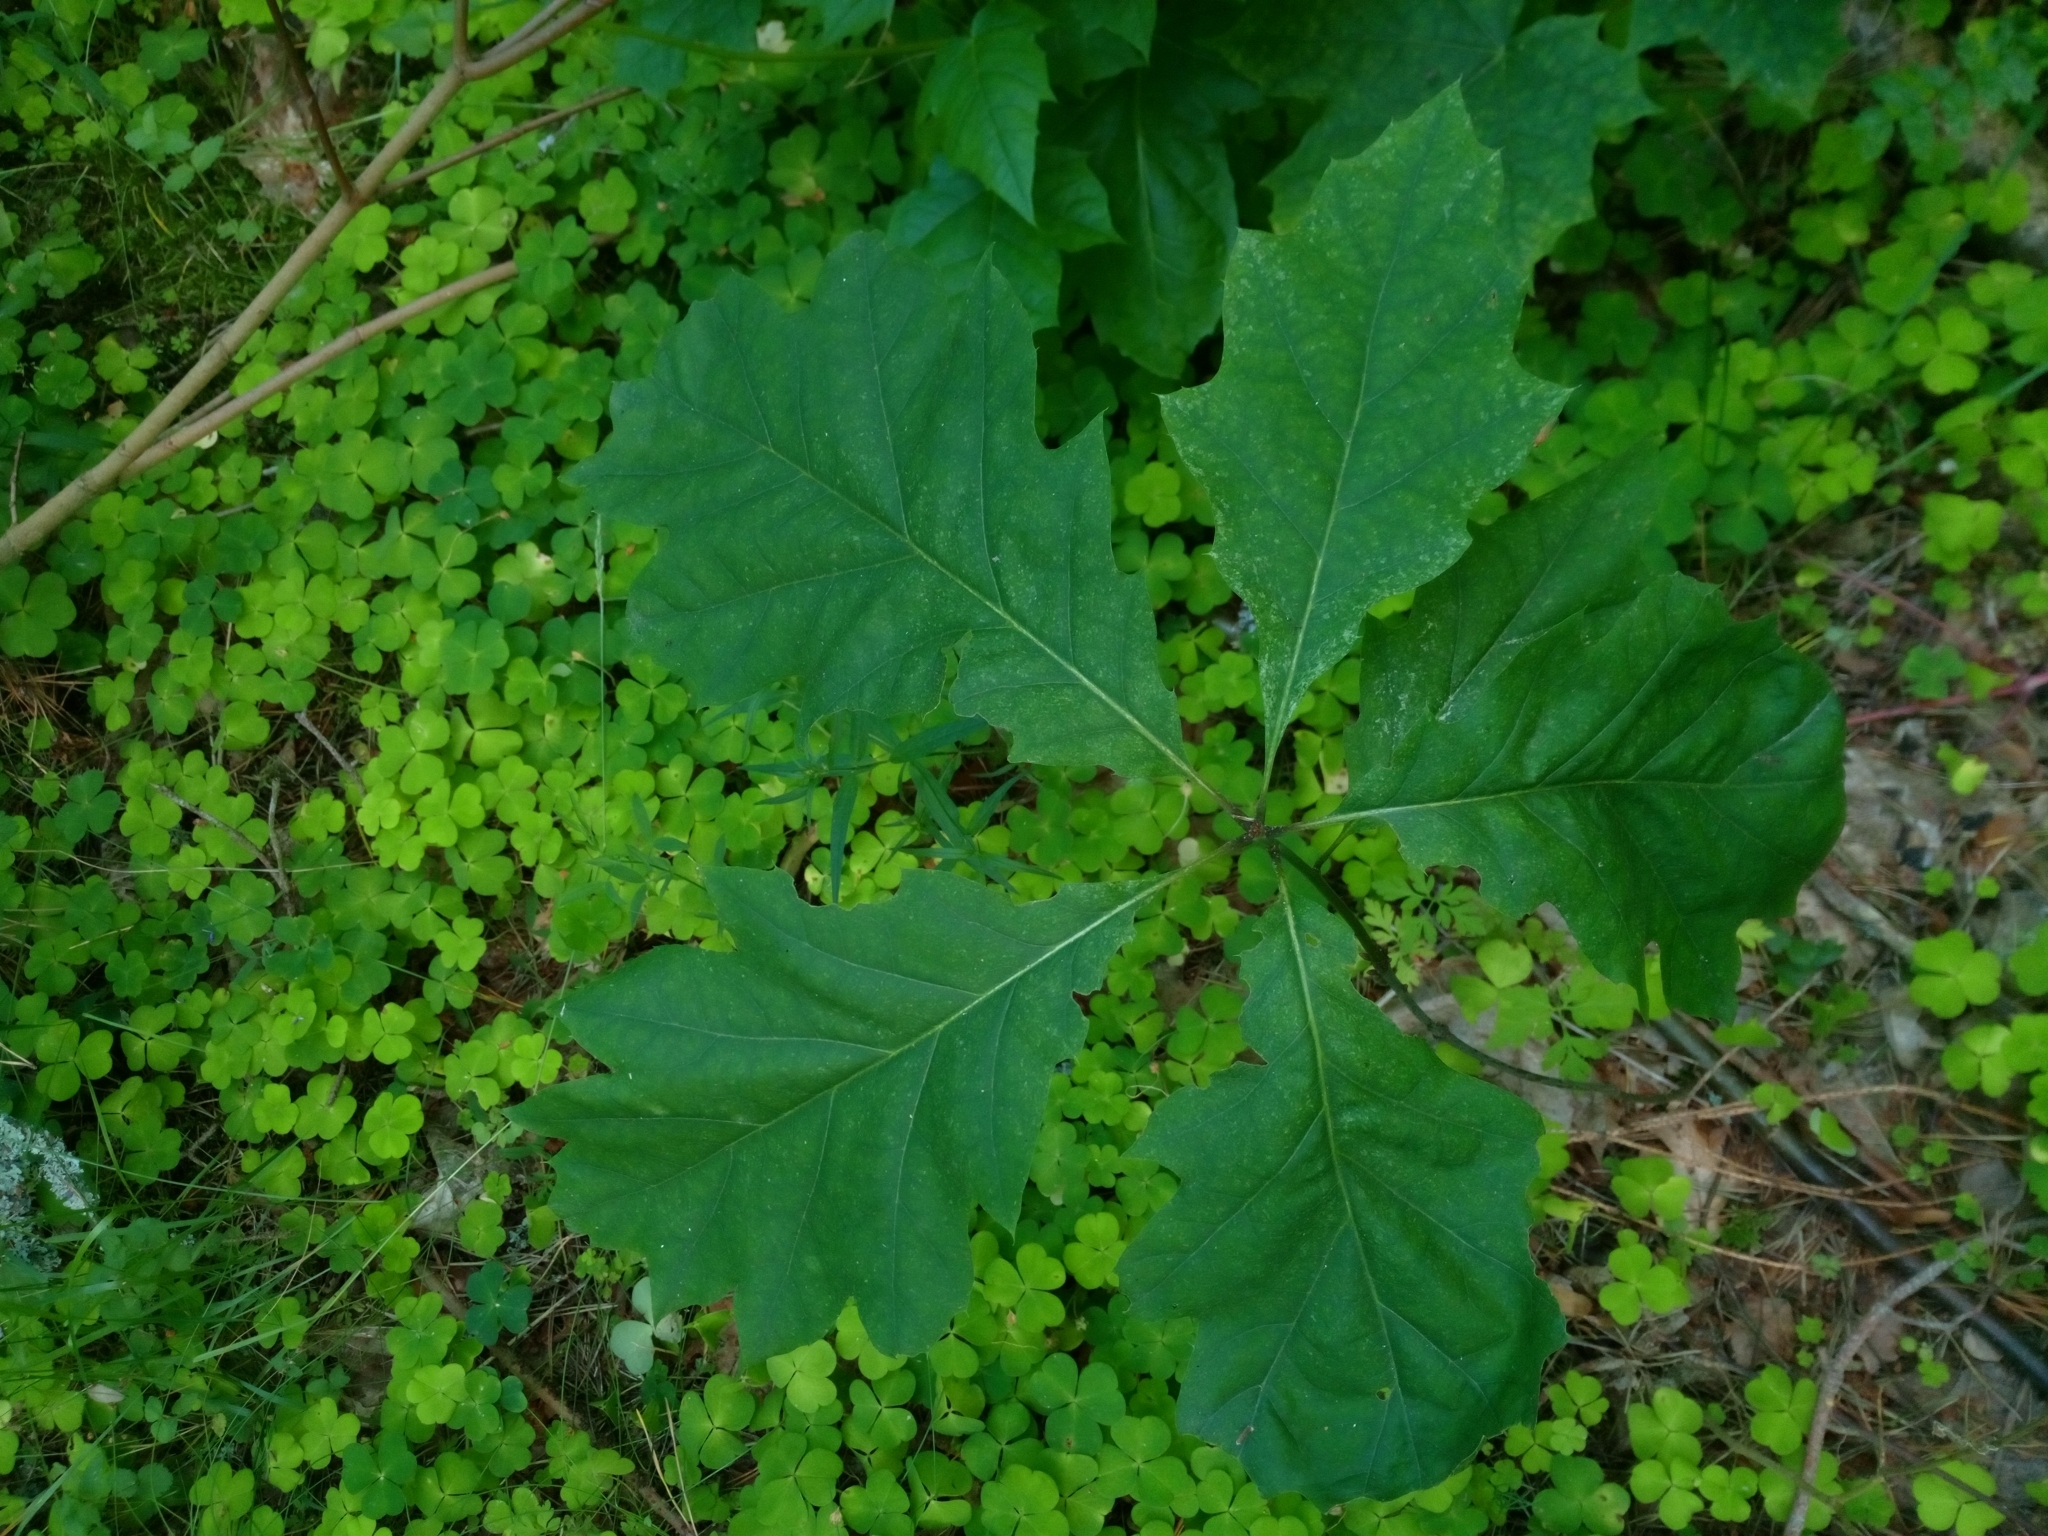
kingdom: Plantae
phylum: Tracheophyta
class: Magnoliopsida
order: Fagales
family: Fagaceae
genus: Quercus
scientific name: Quercus rubra
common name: Red oak
